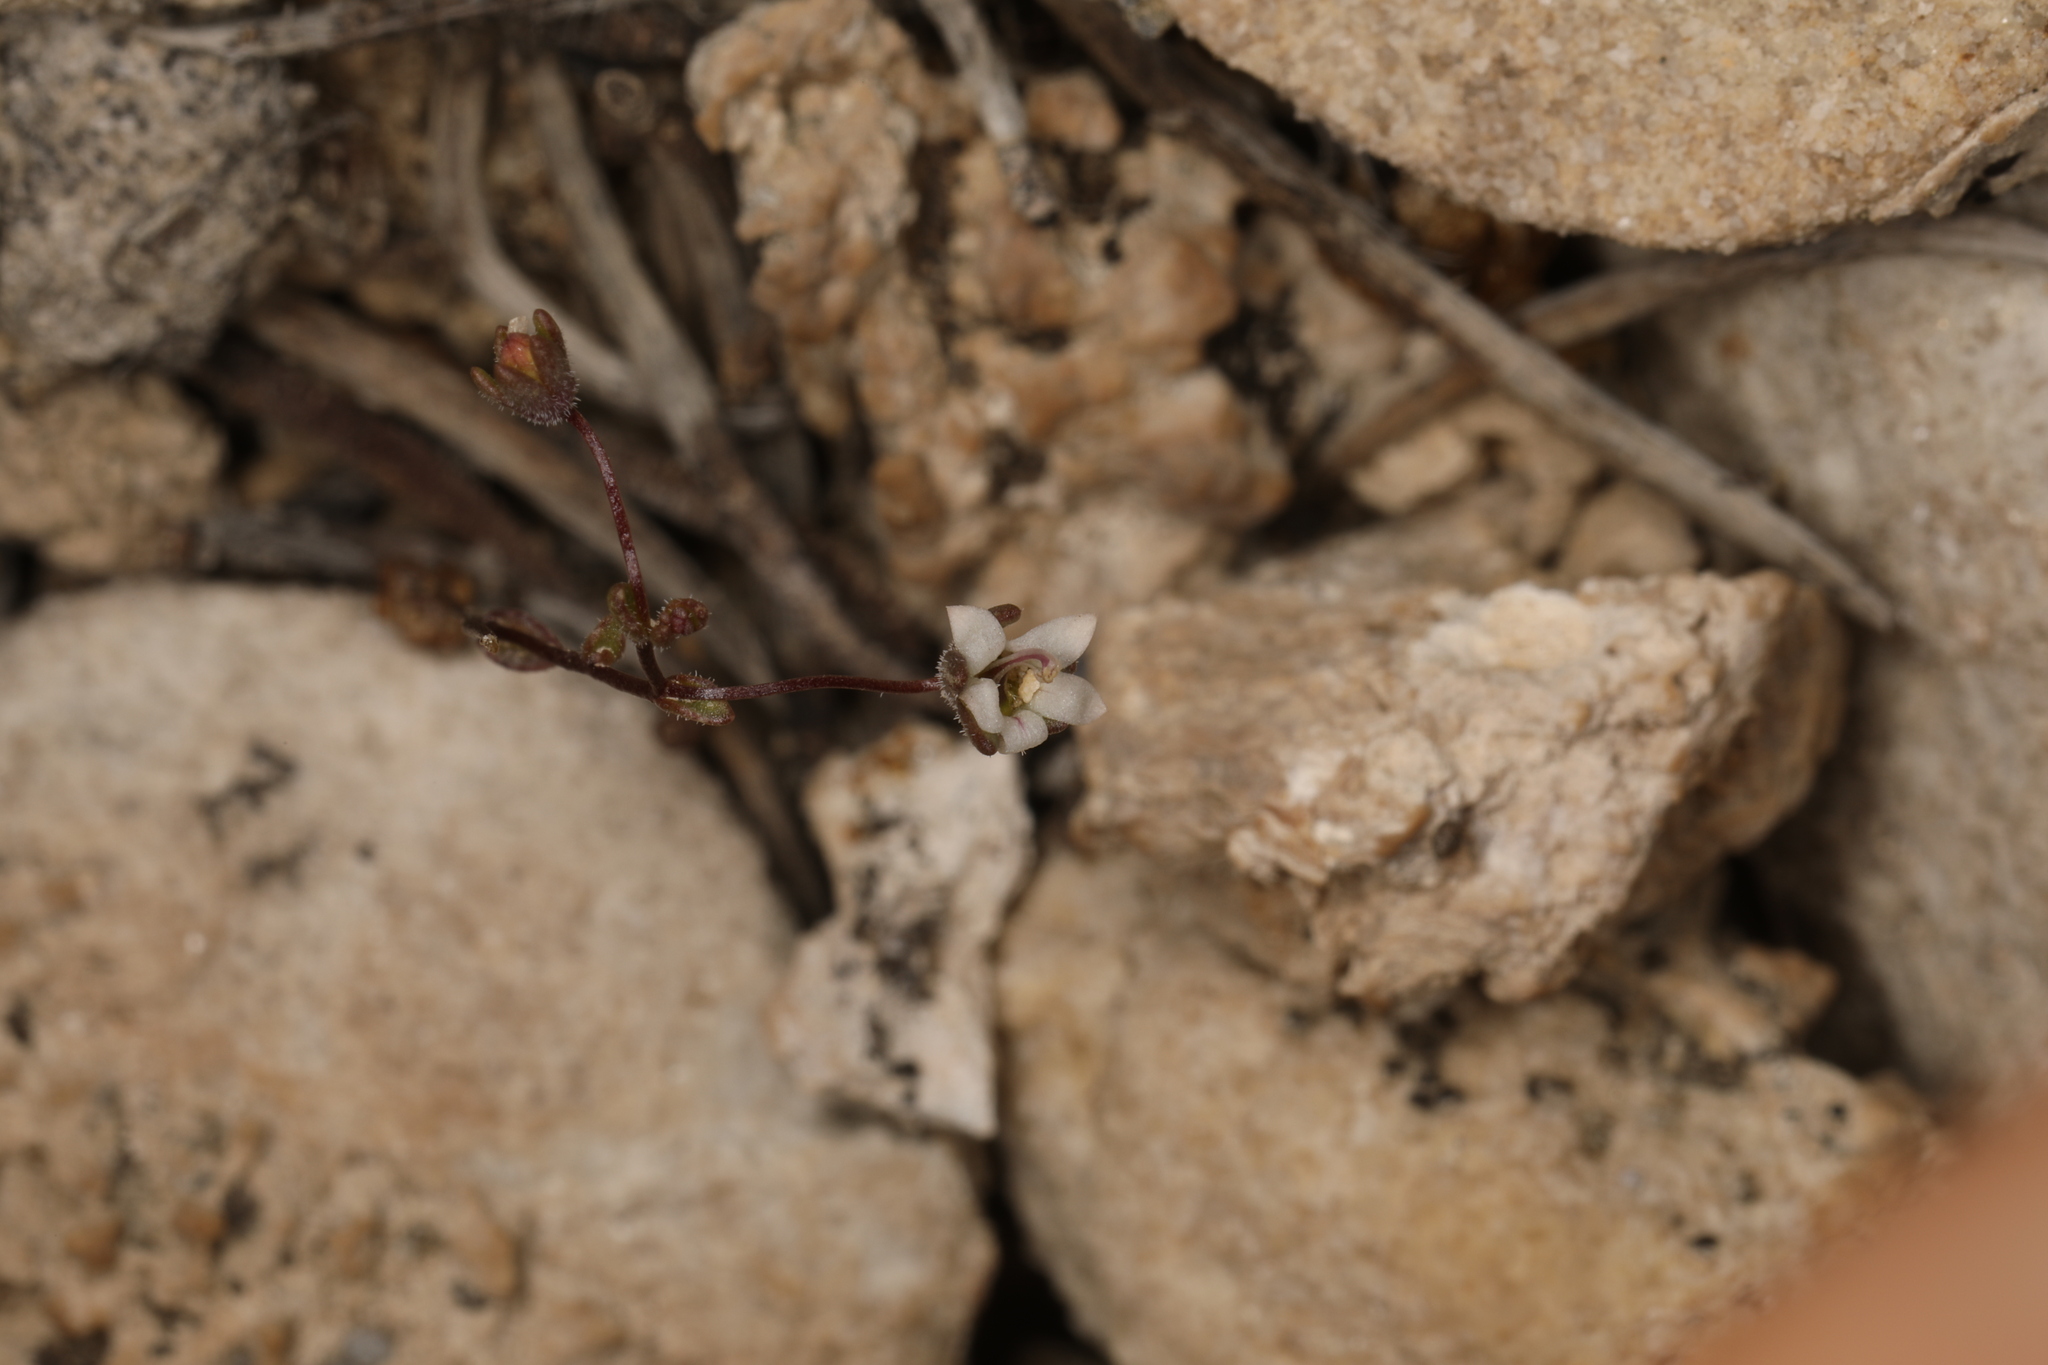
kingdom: Plantae
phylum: Tracheophyta
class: Magnoliopsida
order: Asterales
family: Campanulaceae
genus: Nemacladus
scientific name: Nemacladus inyoensis
